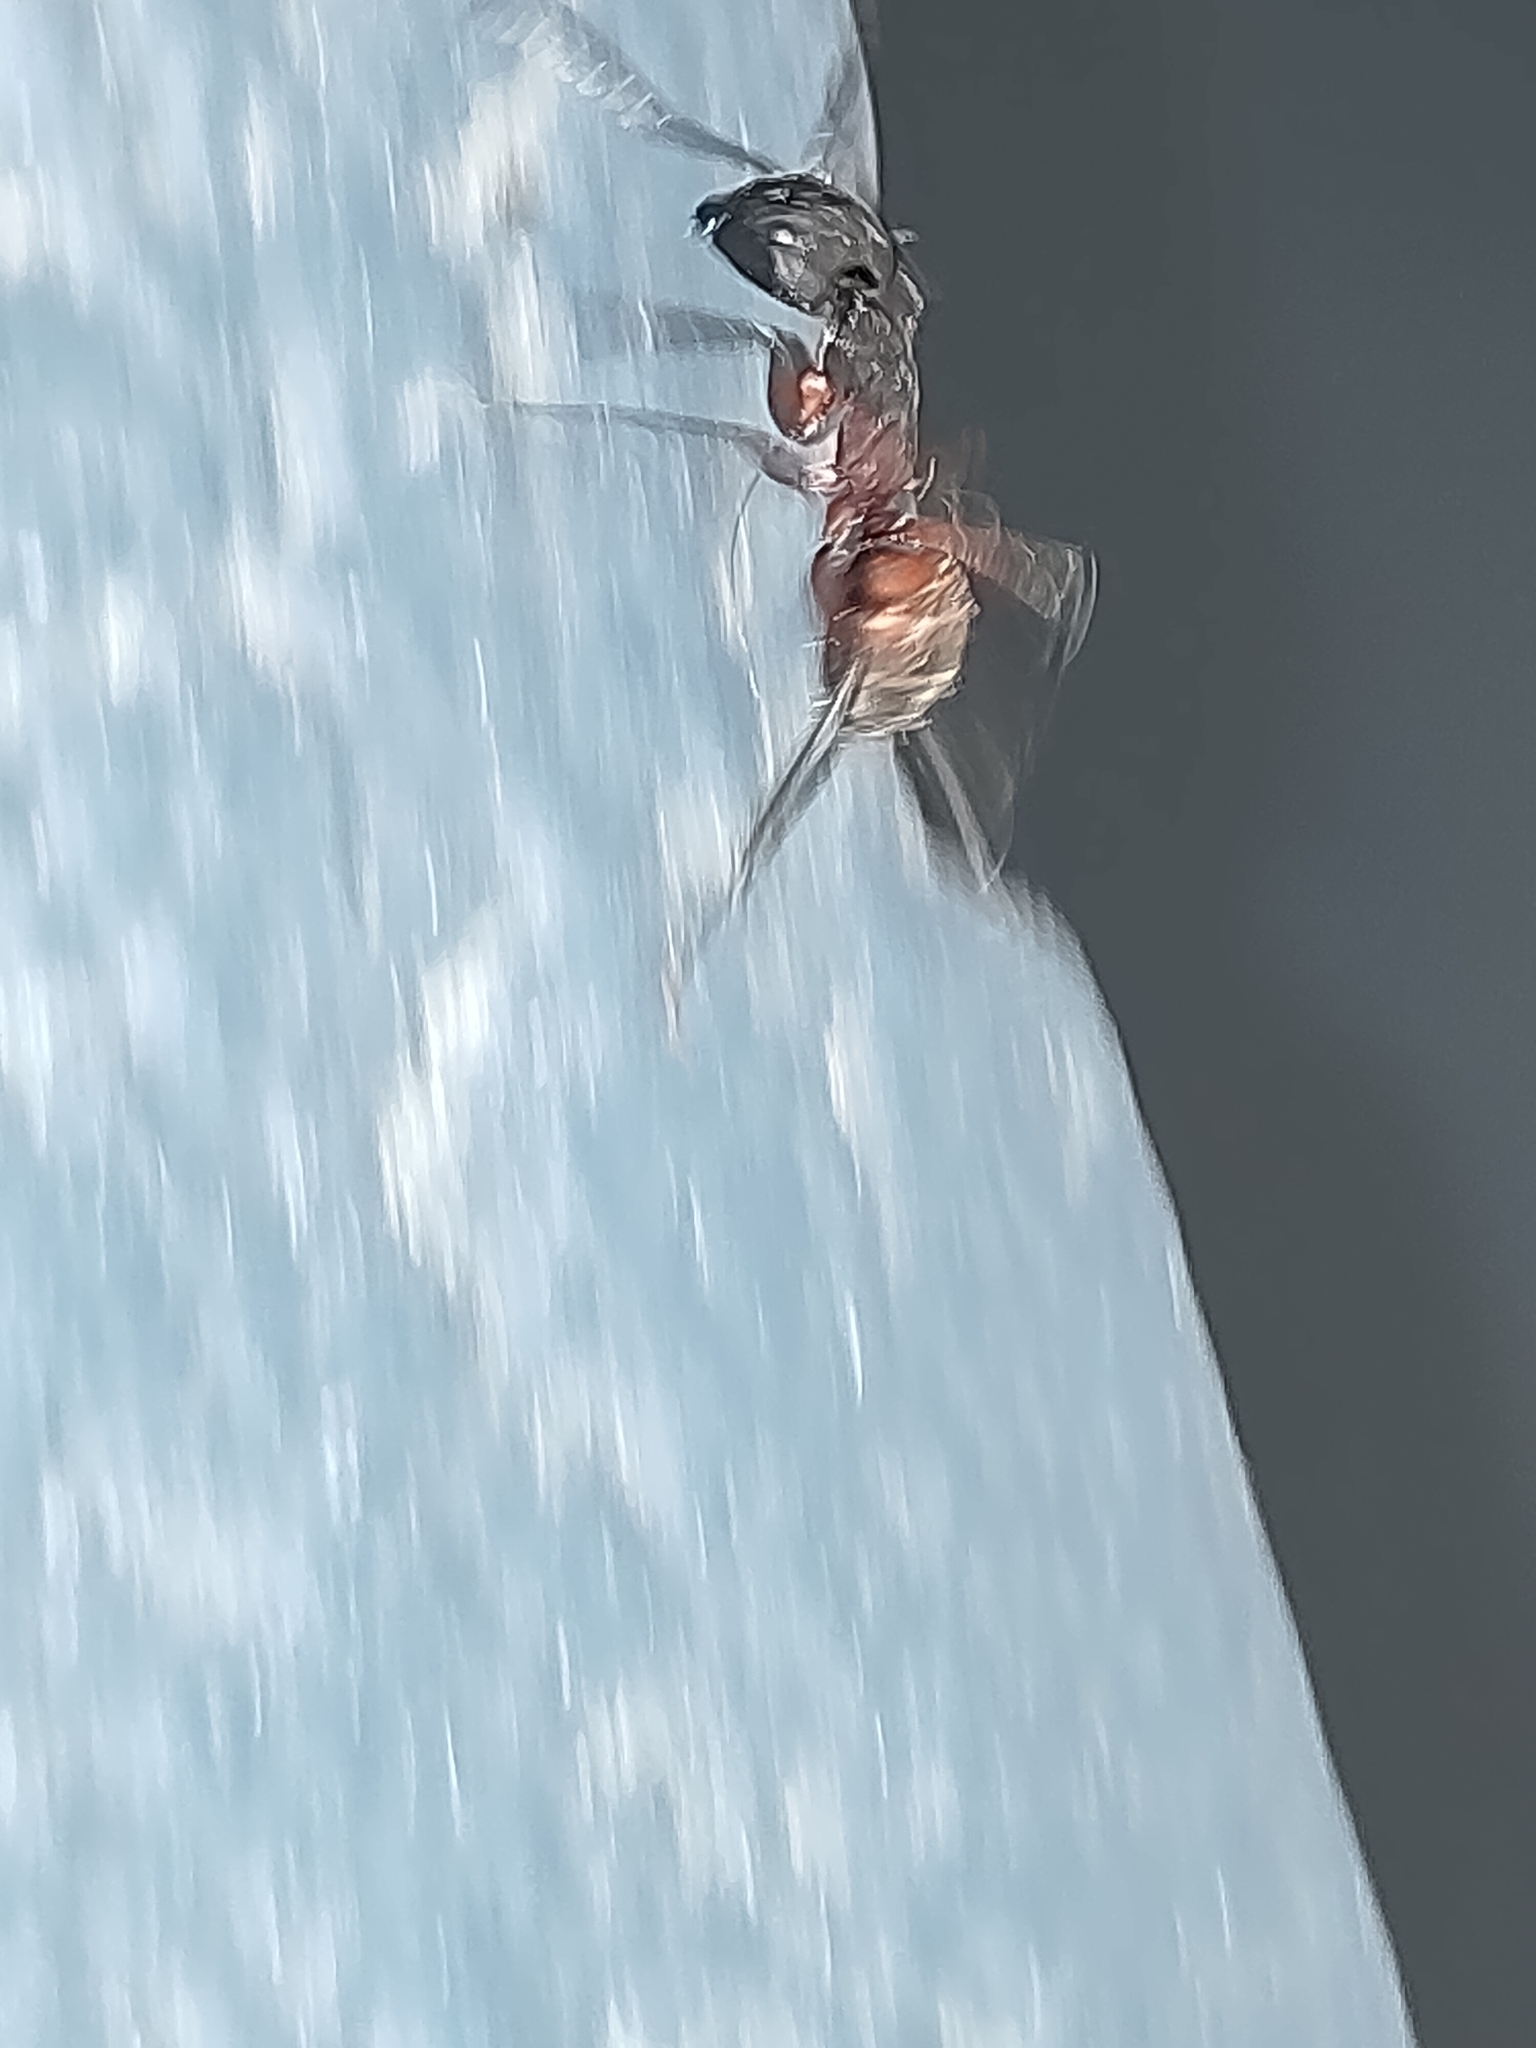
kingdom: Animalia
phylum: Arthropoda
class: Insecta
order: Hymenoptera
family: Formicidae
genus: Camponotus
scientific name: Camponotus cruentatus
